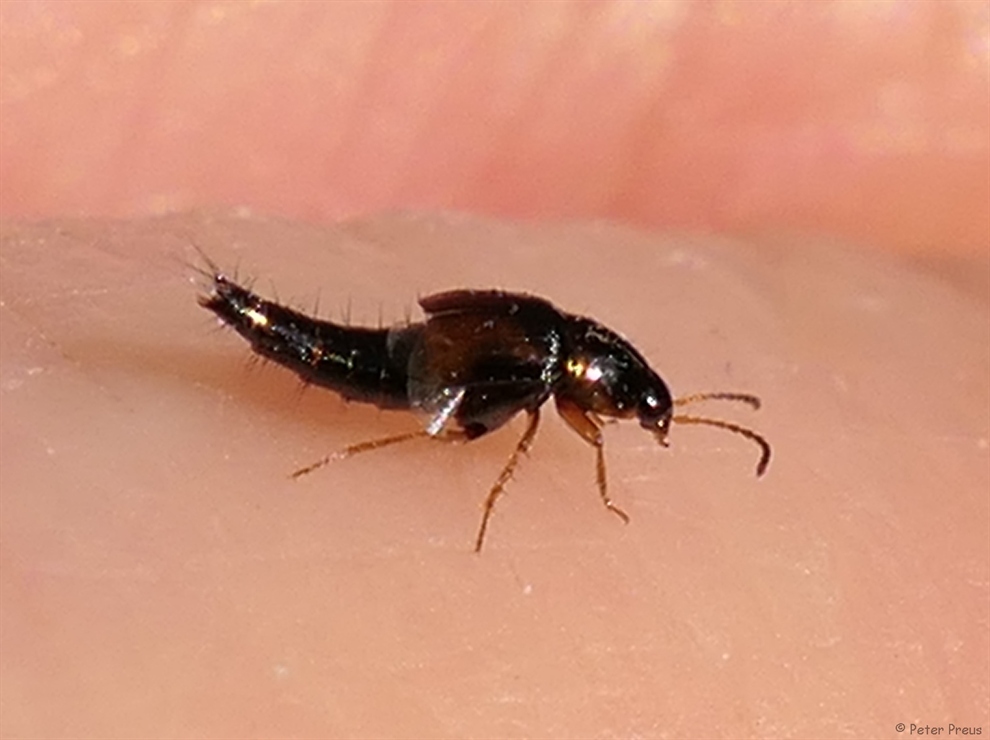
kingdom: Animalia
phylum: Arthropoda
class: Insecta
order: Coleoptera
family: Staphylinidae
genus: Tachyporus
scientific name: Tachyporus hypnorum
